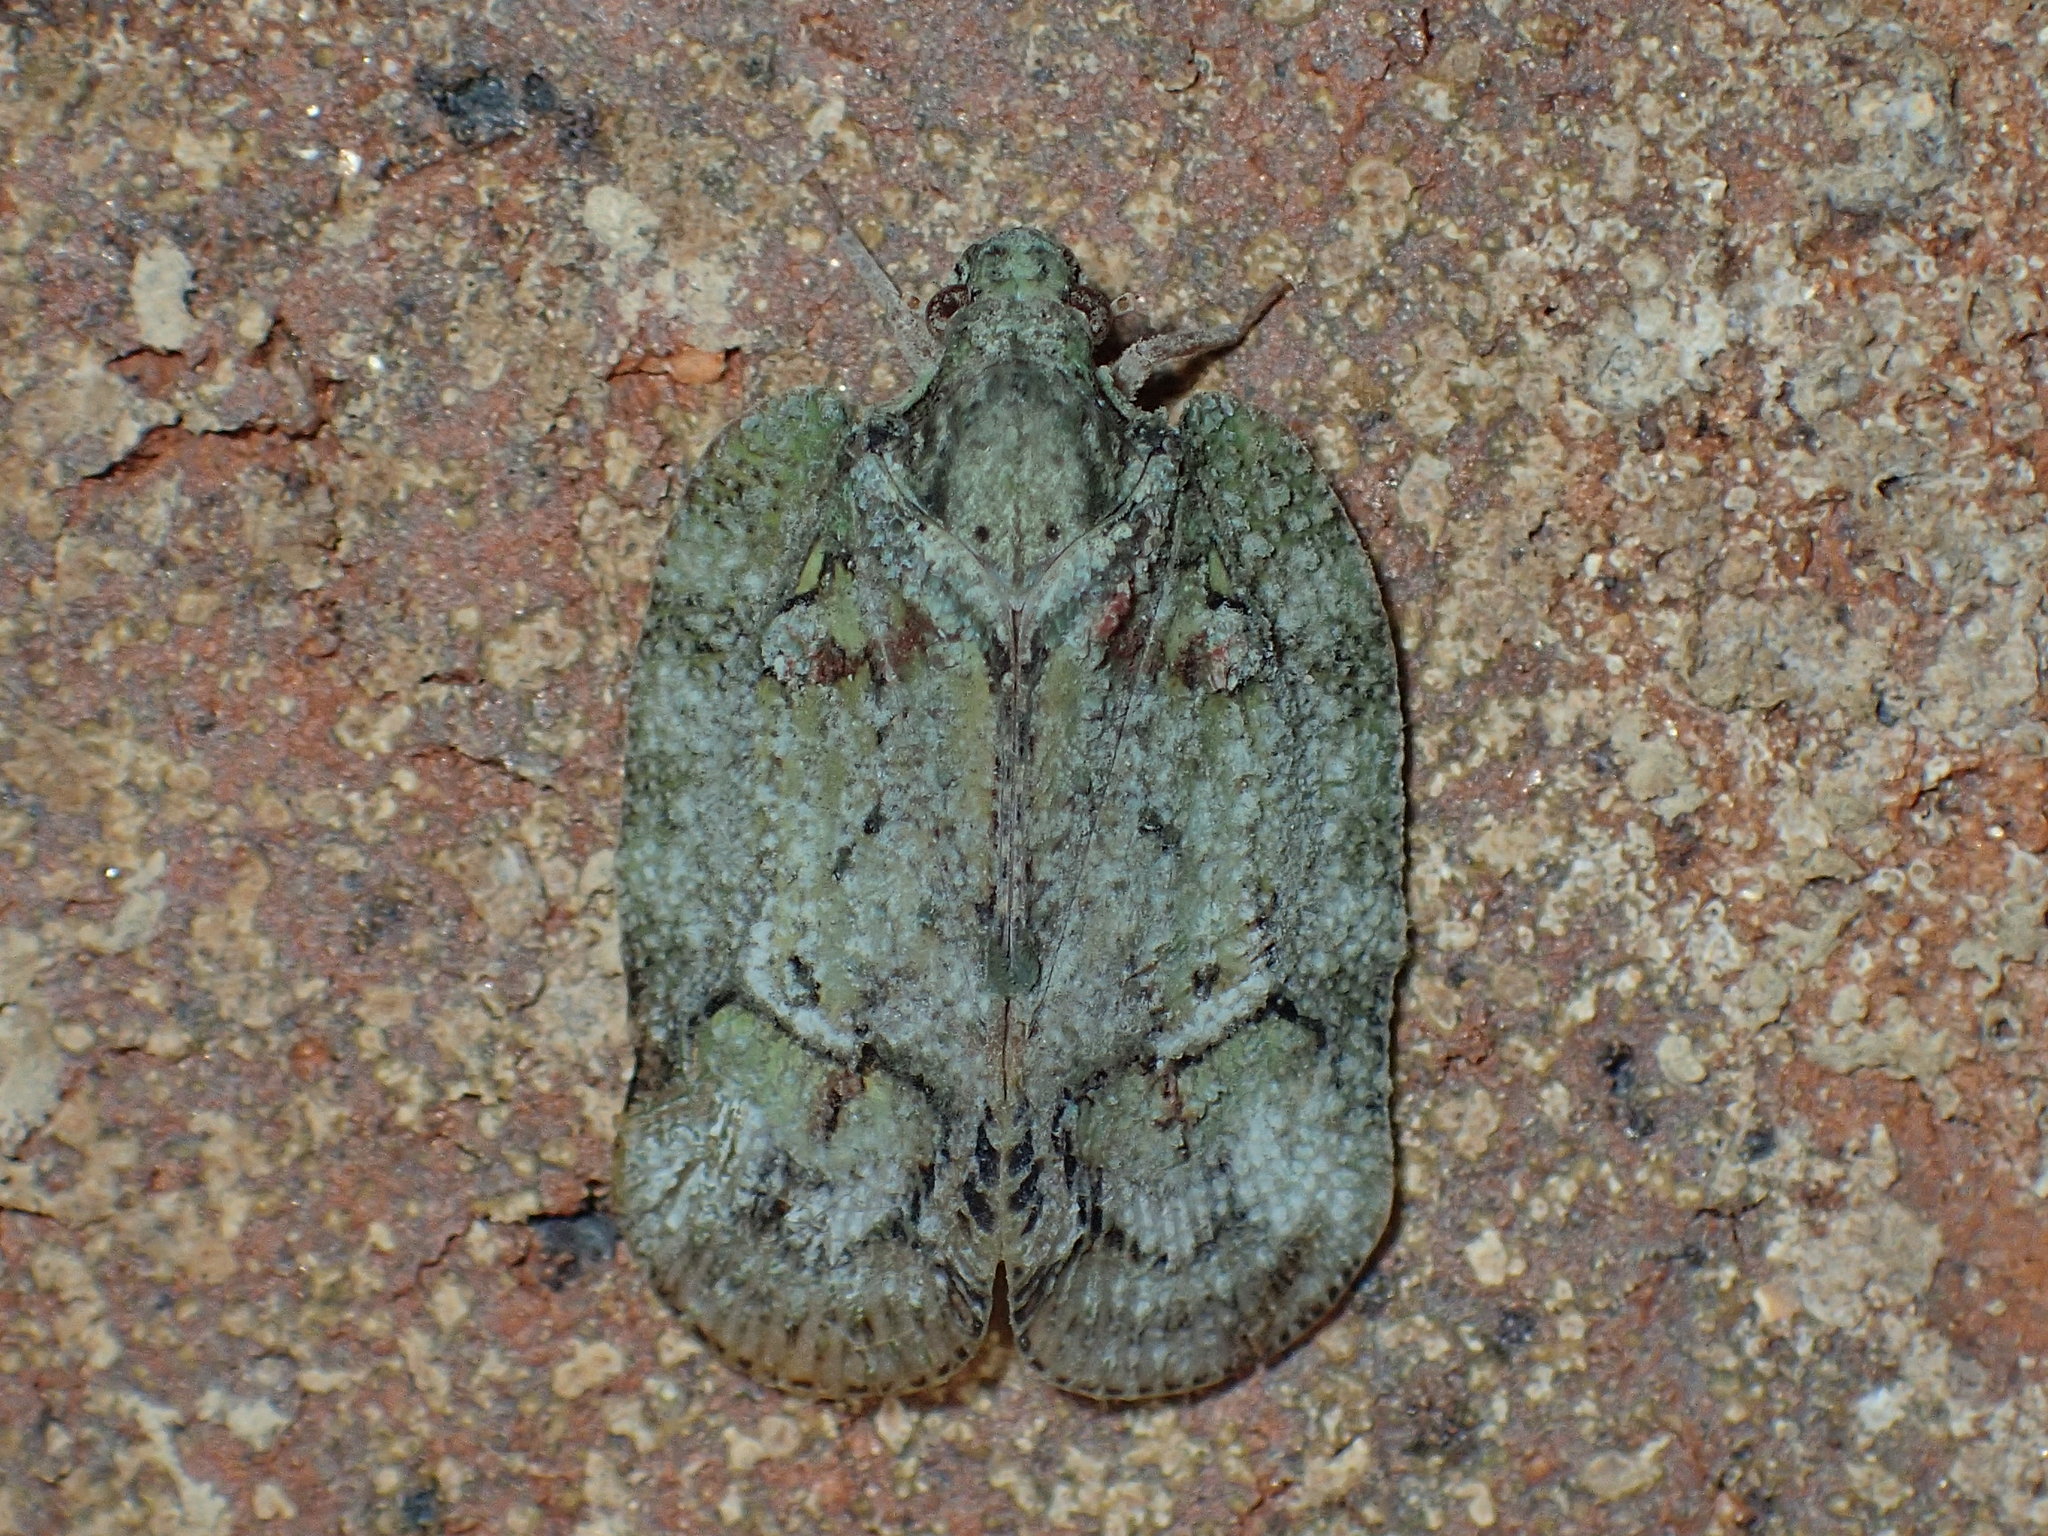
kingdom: Animalia
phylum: Arthropoda
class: Insecta
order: Hemiptera
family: Flatidae
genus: Flataloides
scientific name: Flataloides scabrosa
